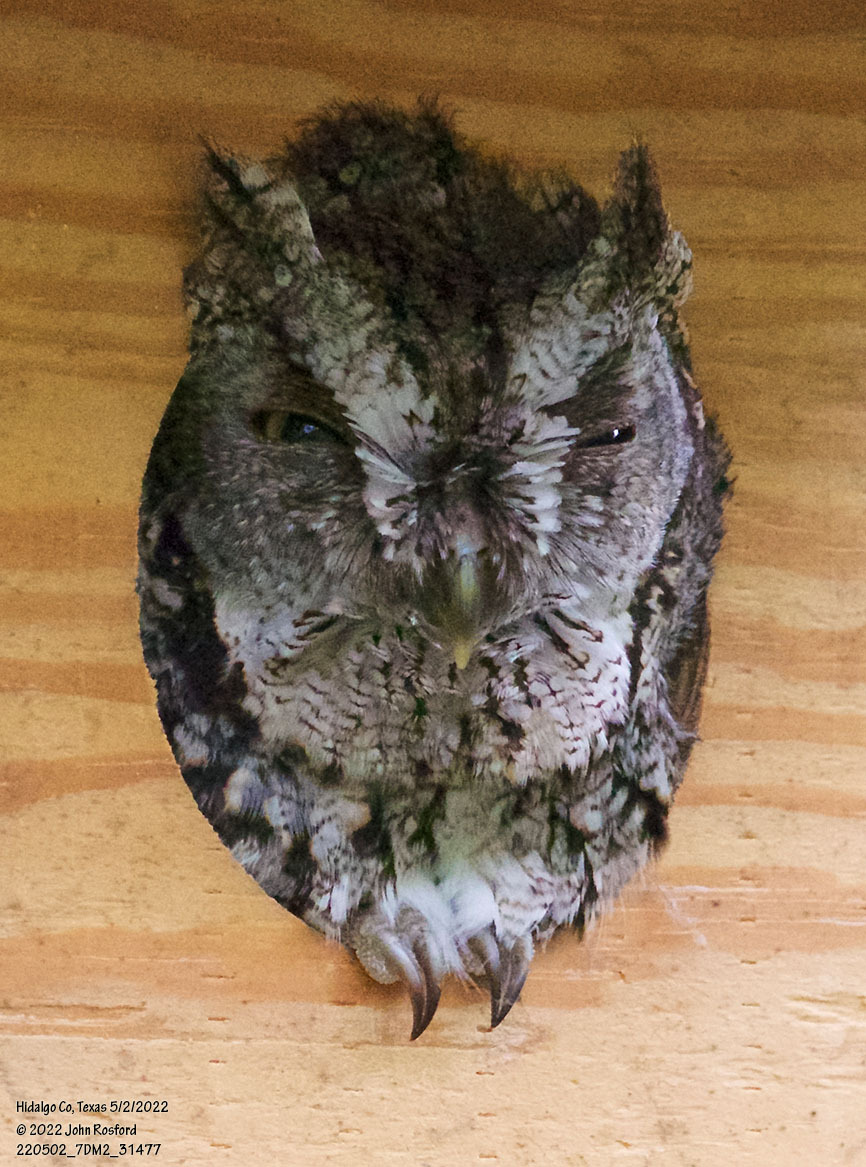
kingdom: Animalia
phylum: Chordata
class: Aves
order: Strigiformes
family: Strigidae
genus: Megascops
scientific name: Megascops asio
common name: Eastern screech-owl
